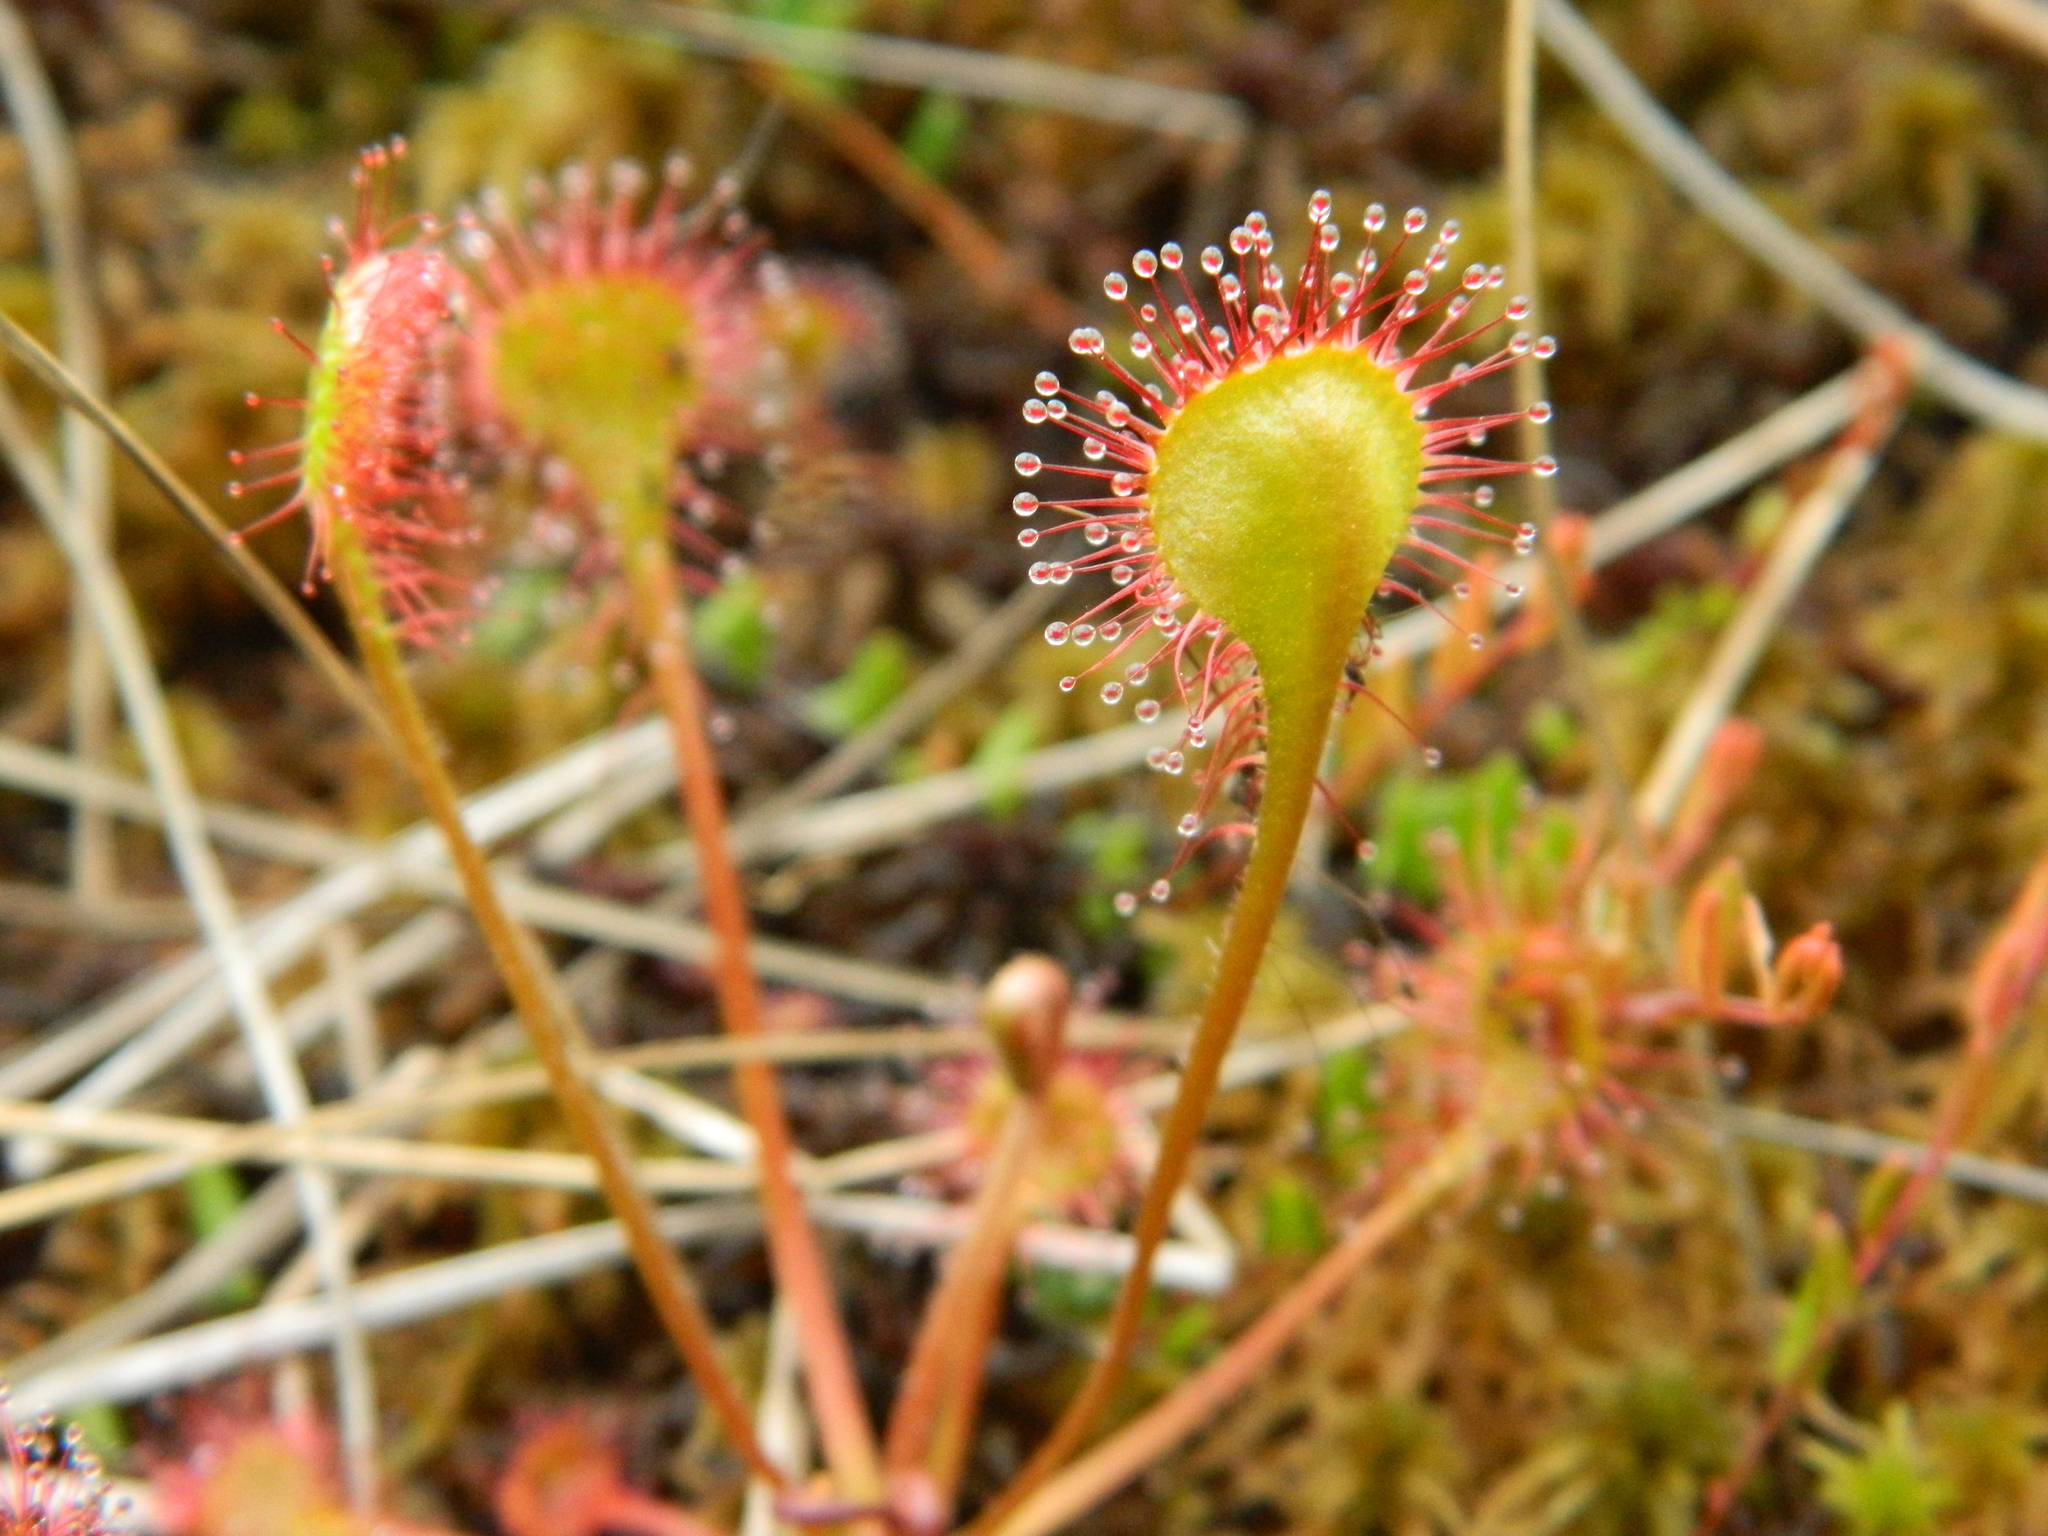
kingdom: Plantae
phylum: Tracheophyta
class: Magnoliopsida
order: Caryophyllales
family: Droseraceae
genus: Drosera
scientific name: Drosera rotundifolia
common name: Round-leaved sundew
